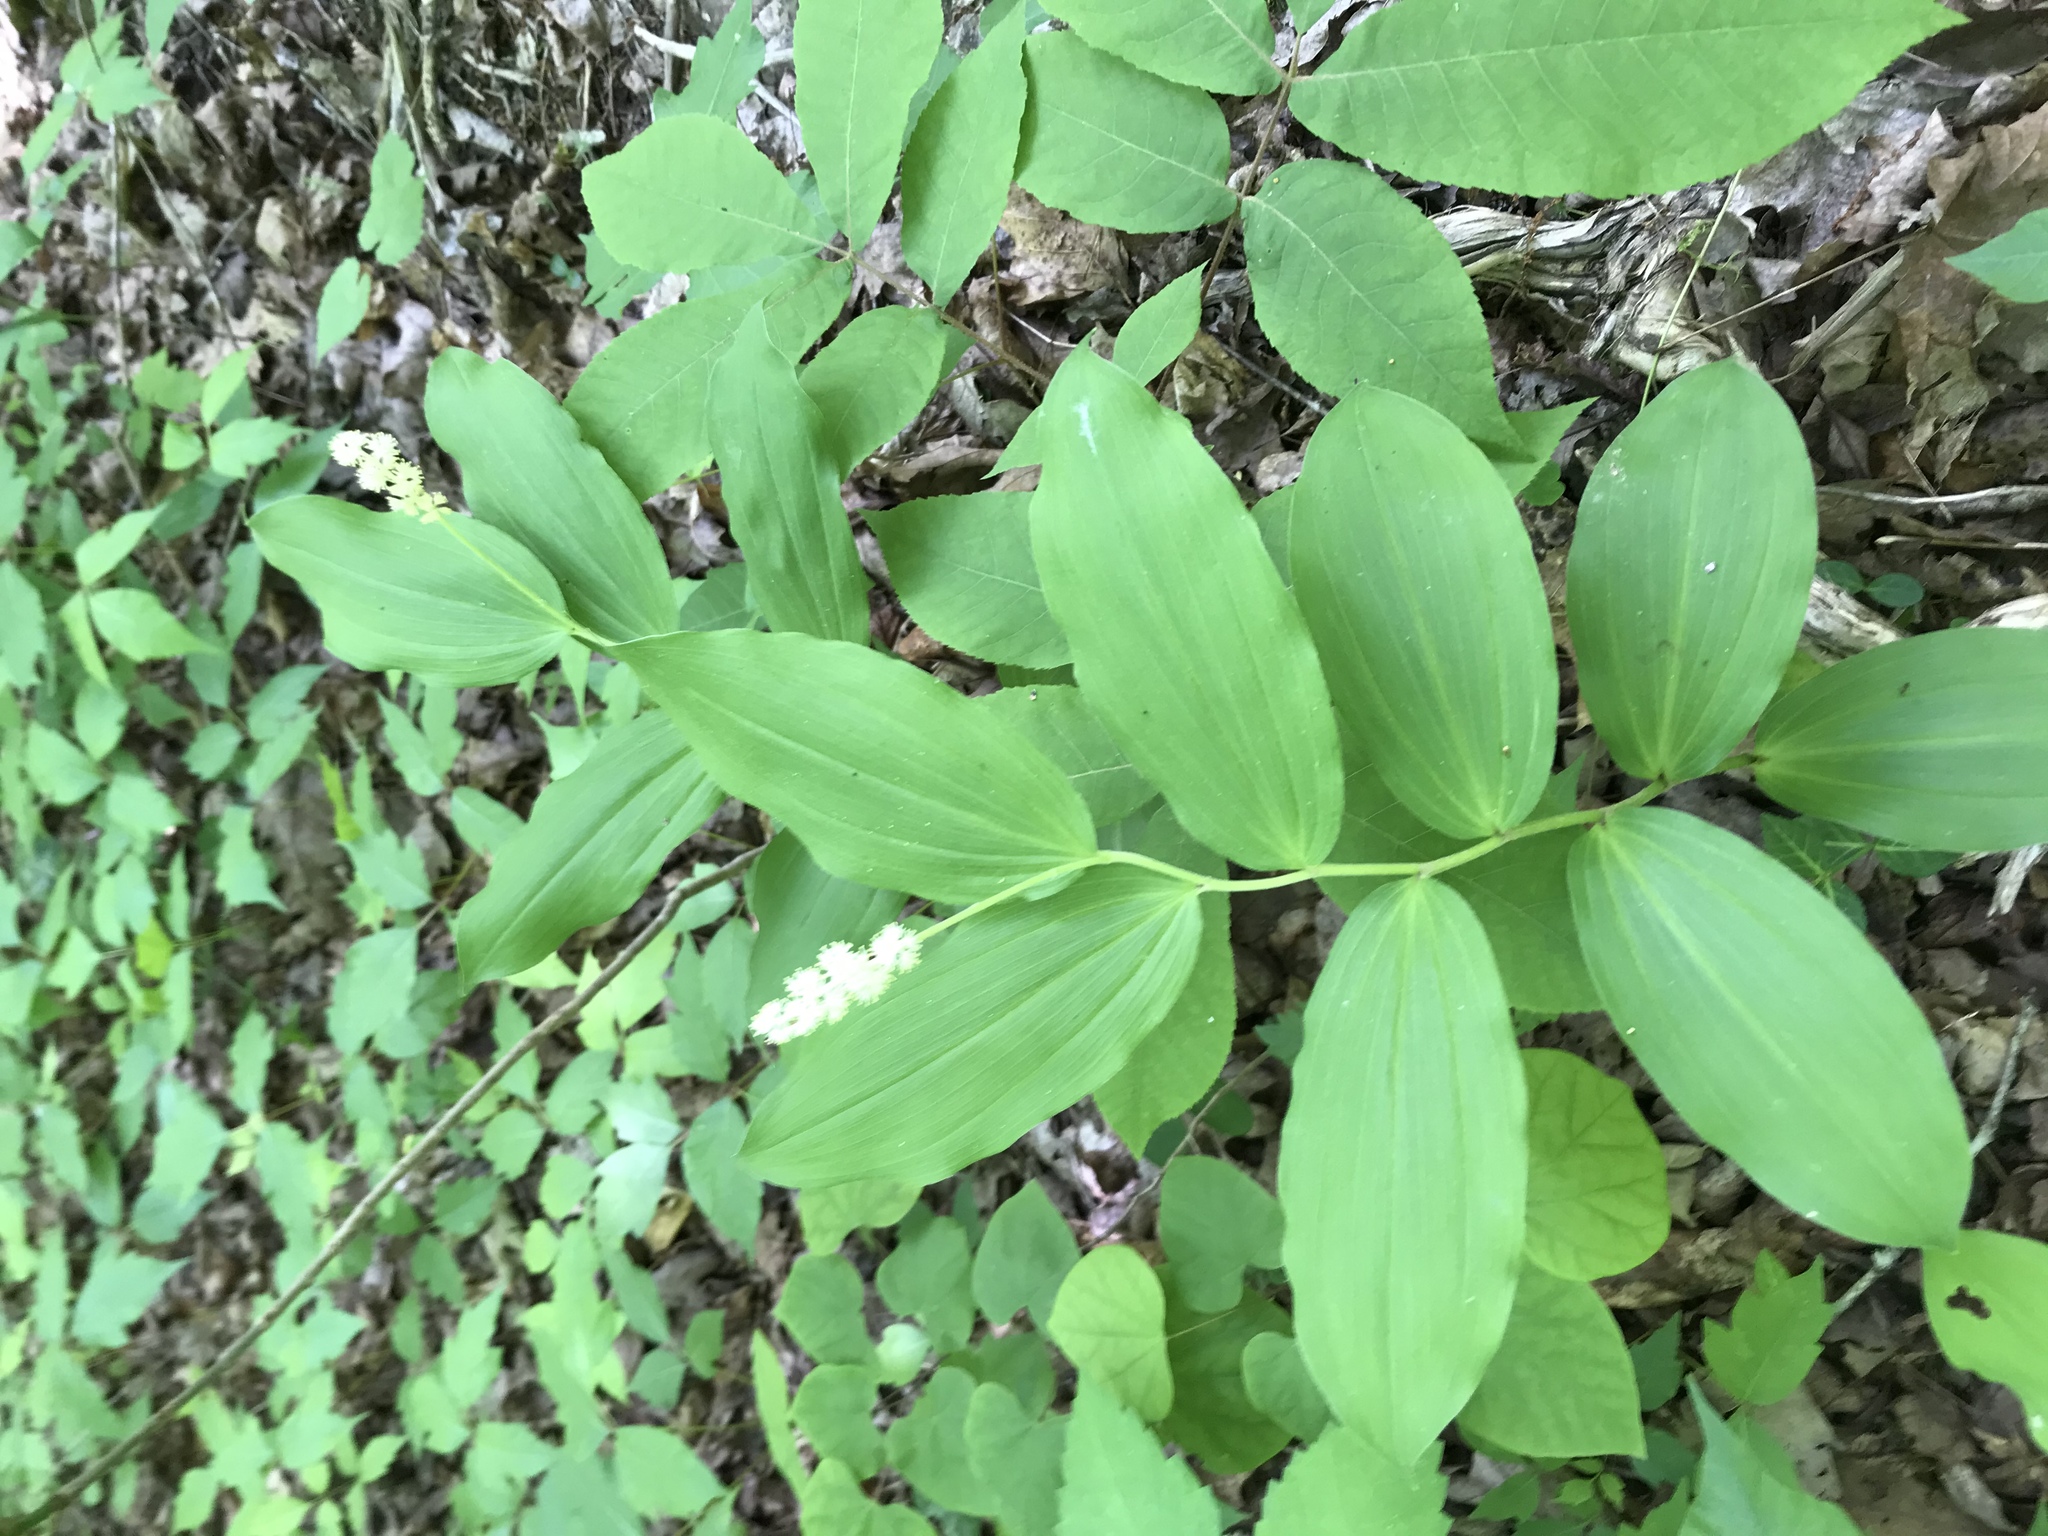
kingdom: Plantae
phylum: Tracheophyta
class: Liliopsida
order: Asparagales
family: Asparagaceae
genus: Maianthemum
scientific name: Maianthemum racemosum
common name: False spikenard
